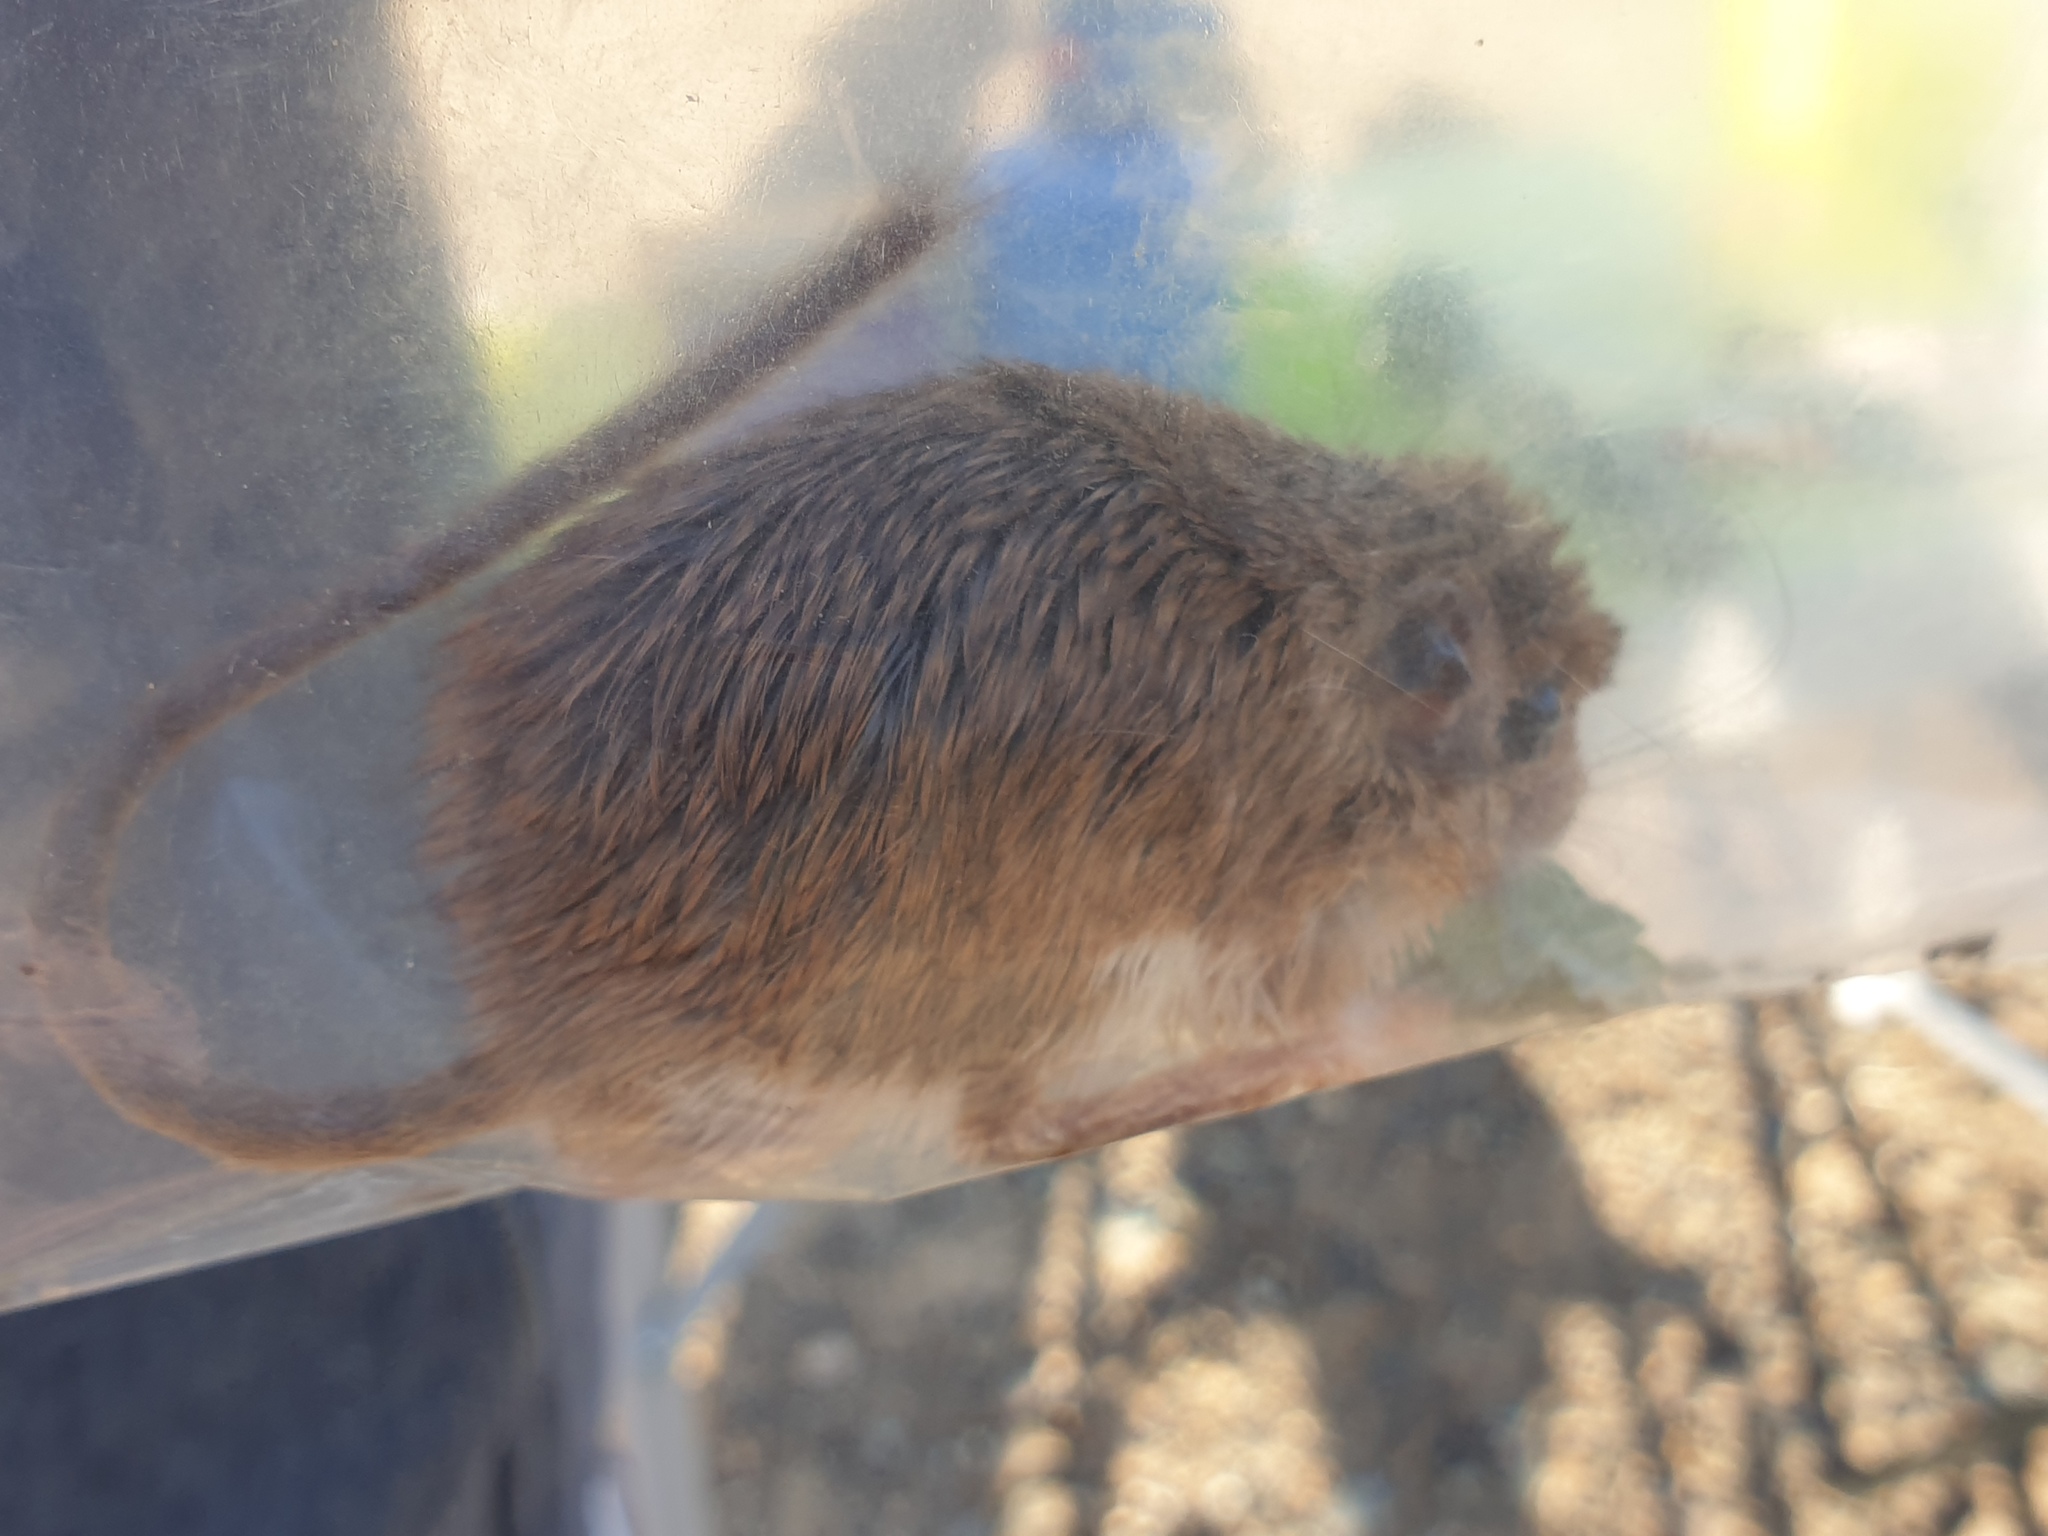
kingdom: Animalia
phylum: Chordata
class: Mammalia
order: Rodentia
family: Muridae
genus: Acomys
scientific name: Acomys dimidiatus
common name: Eastern spiny mouse
